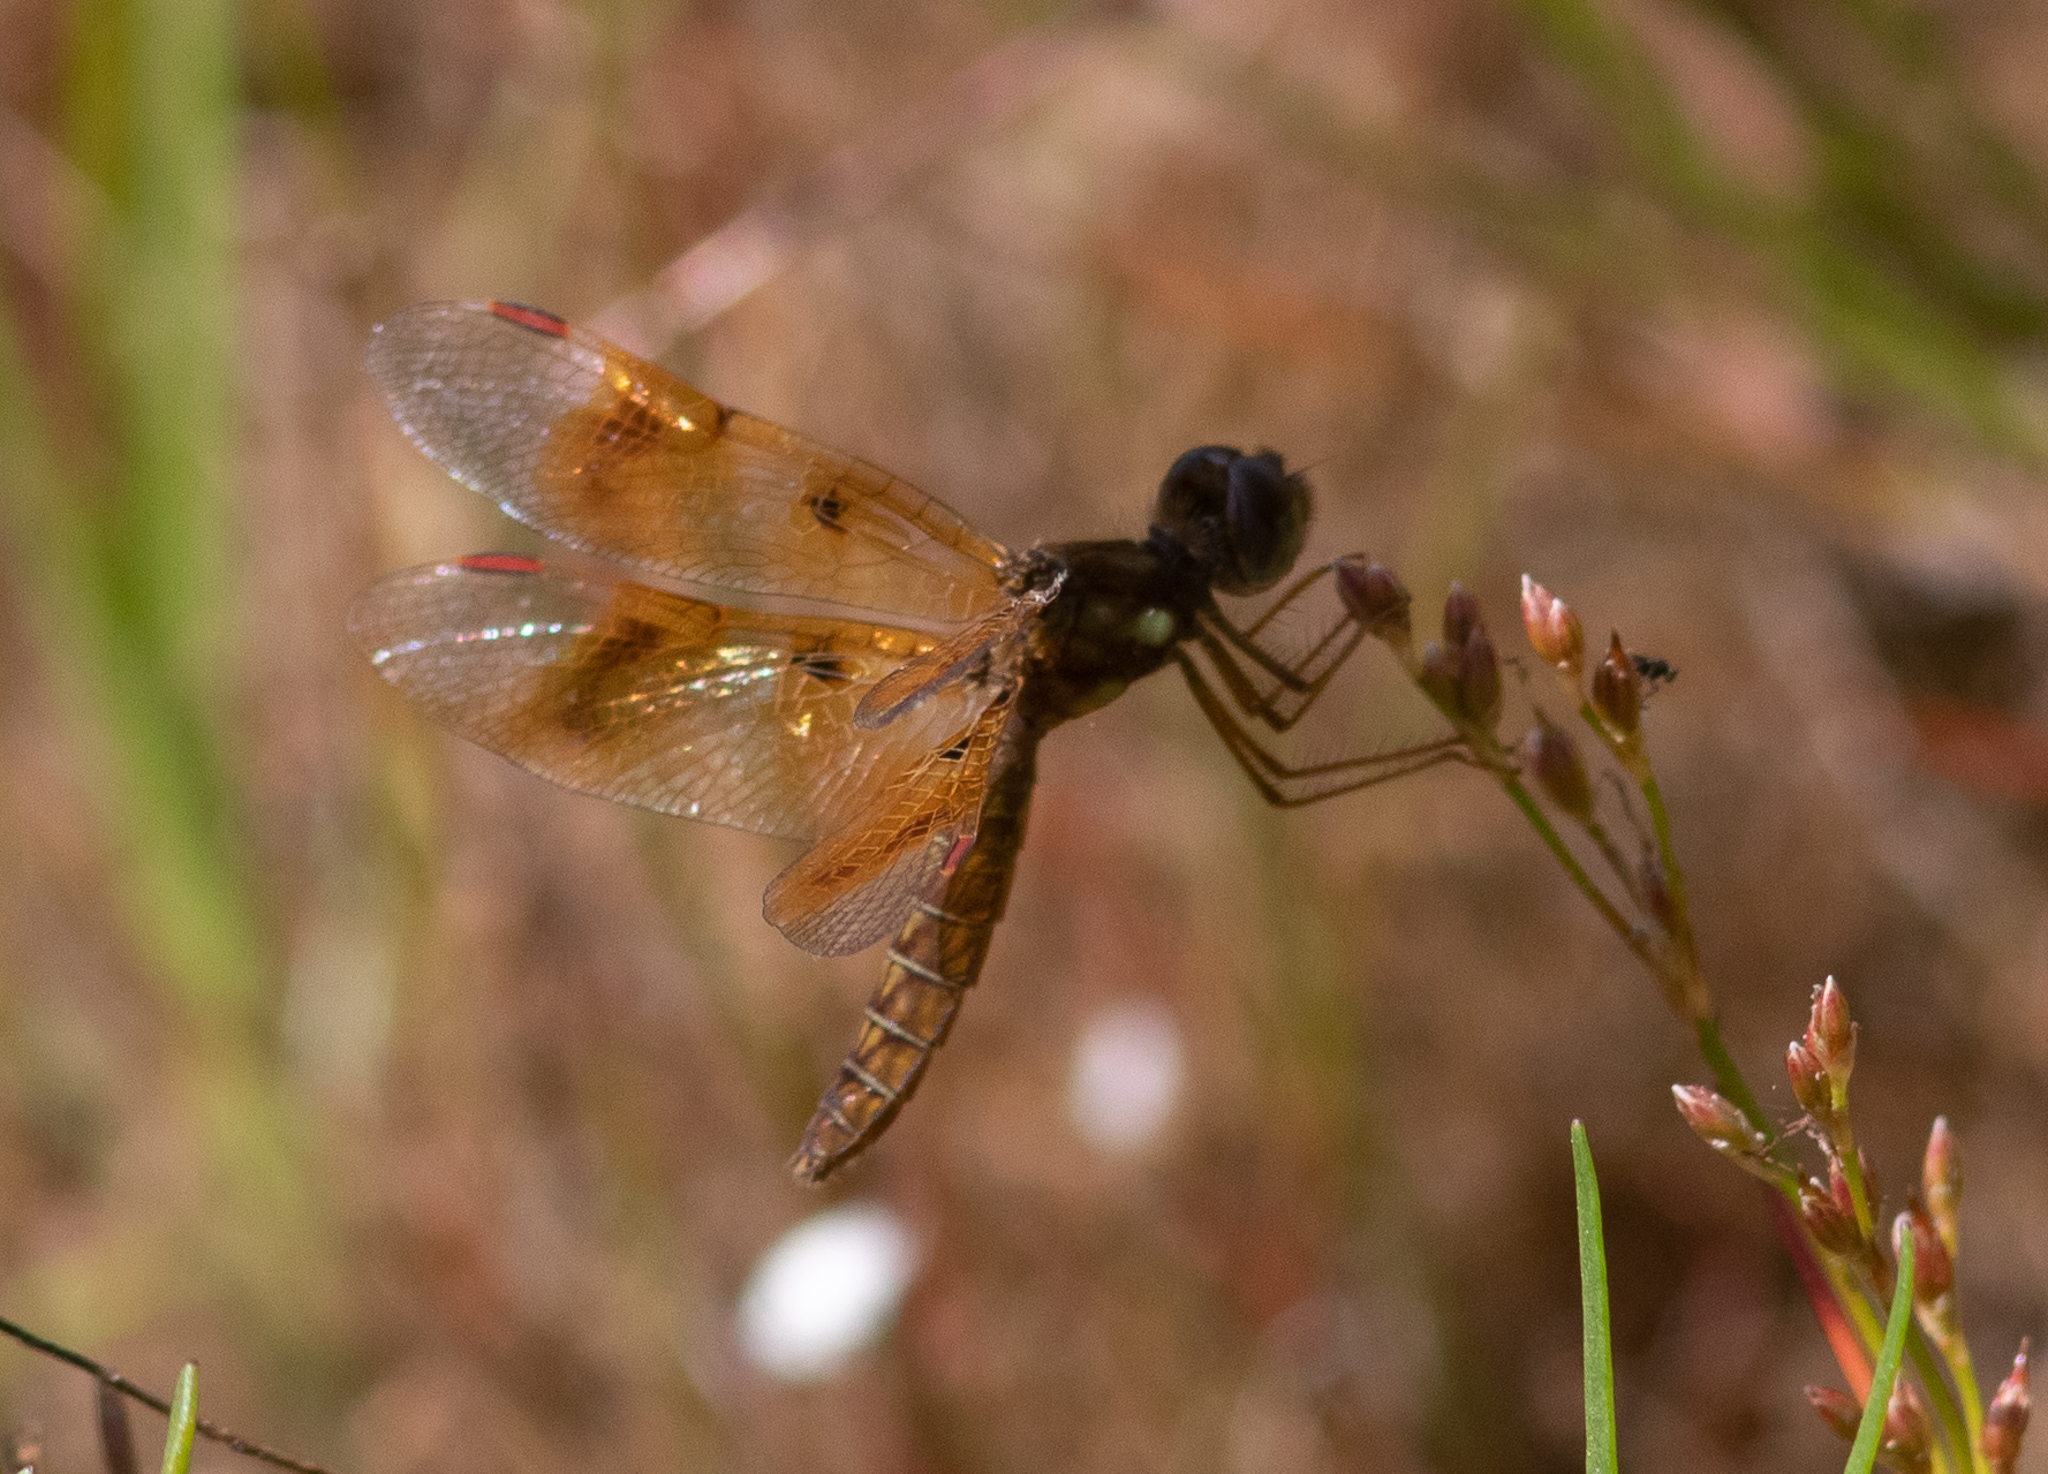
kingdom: Animalia
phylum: Arthropoda
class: Insecta
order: Odonata
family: Libellulidae
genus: Perithemis
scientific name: Perithemis tenera
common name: Eastern amberwing
